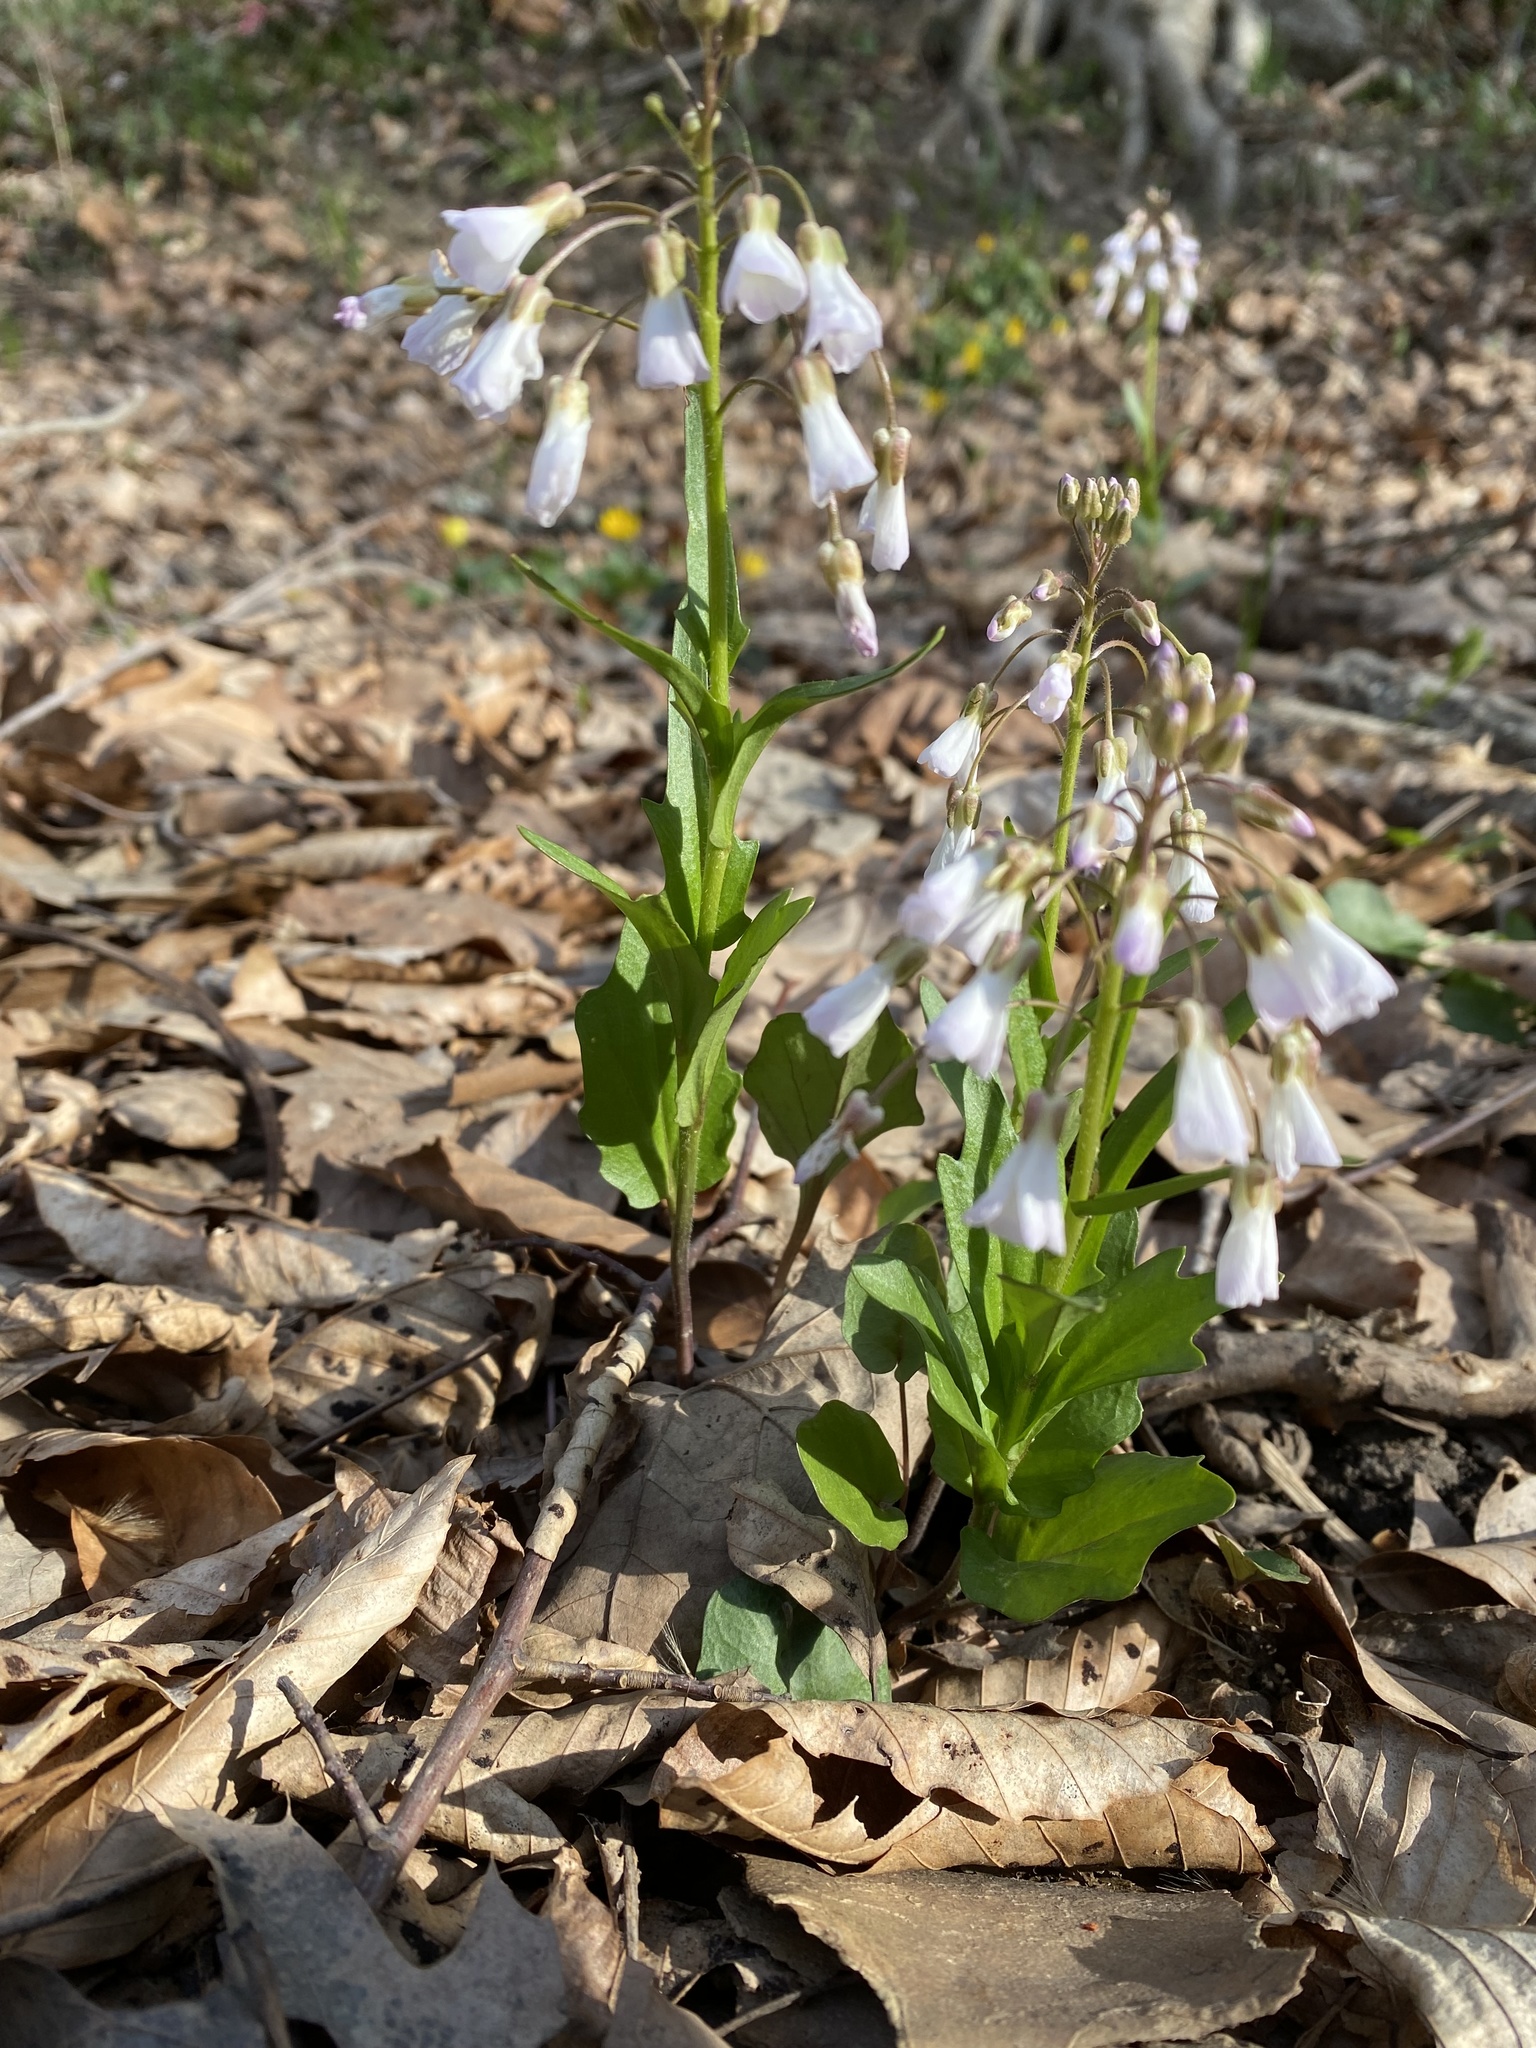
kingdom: Plantae
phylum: Tracheophyta
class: Magnoliopsida
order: Brassicales
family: Brassicaceae
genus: Cardamine
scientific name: Cardamine douglassii
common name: Purple cress
